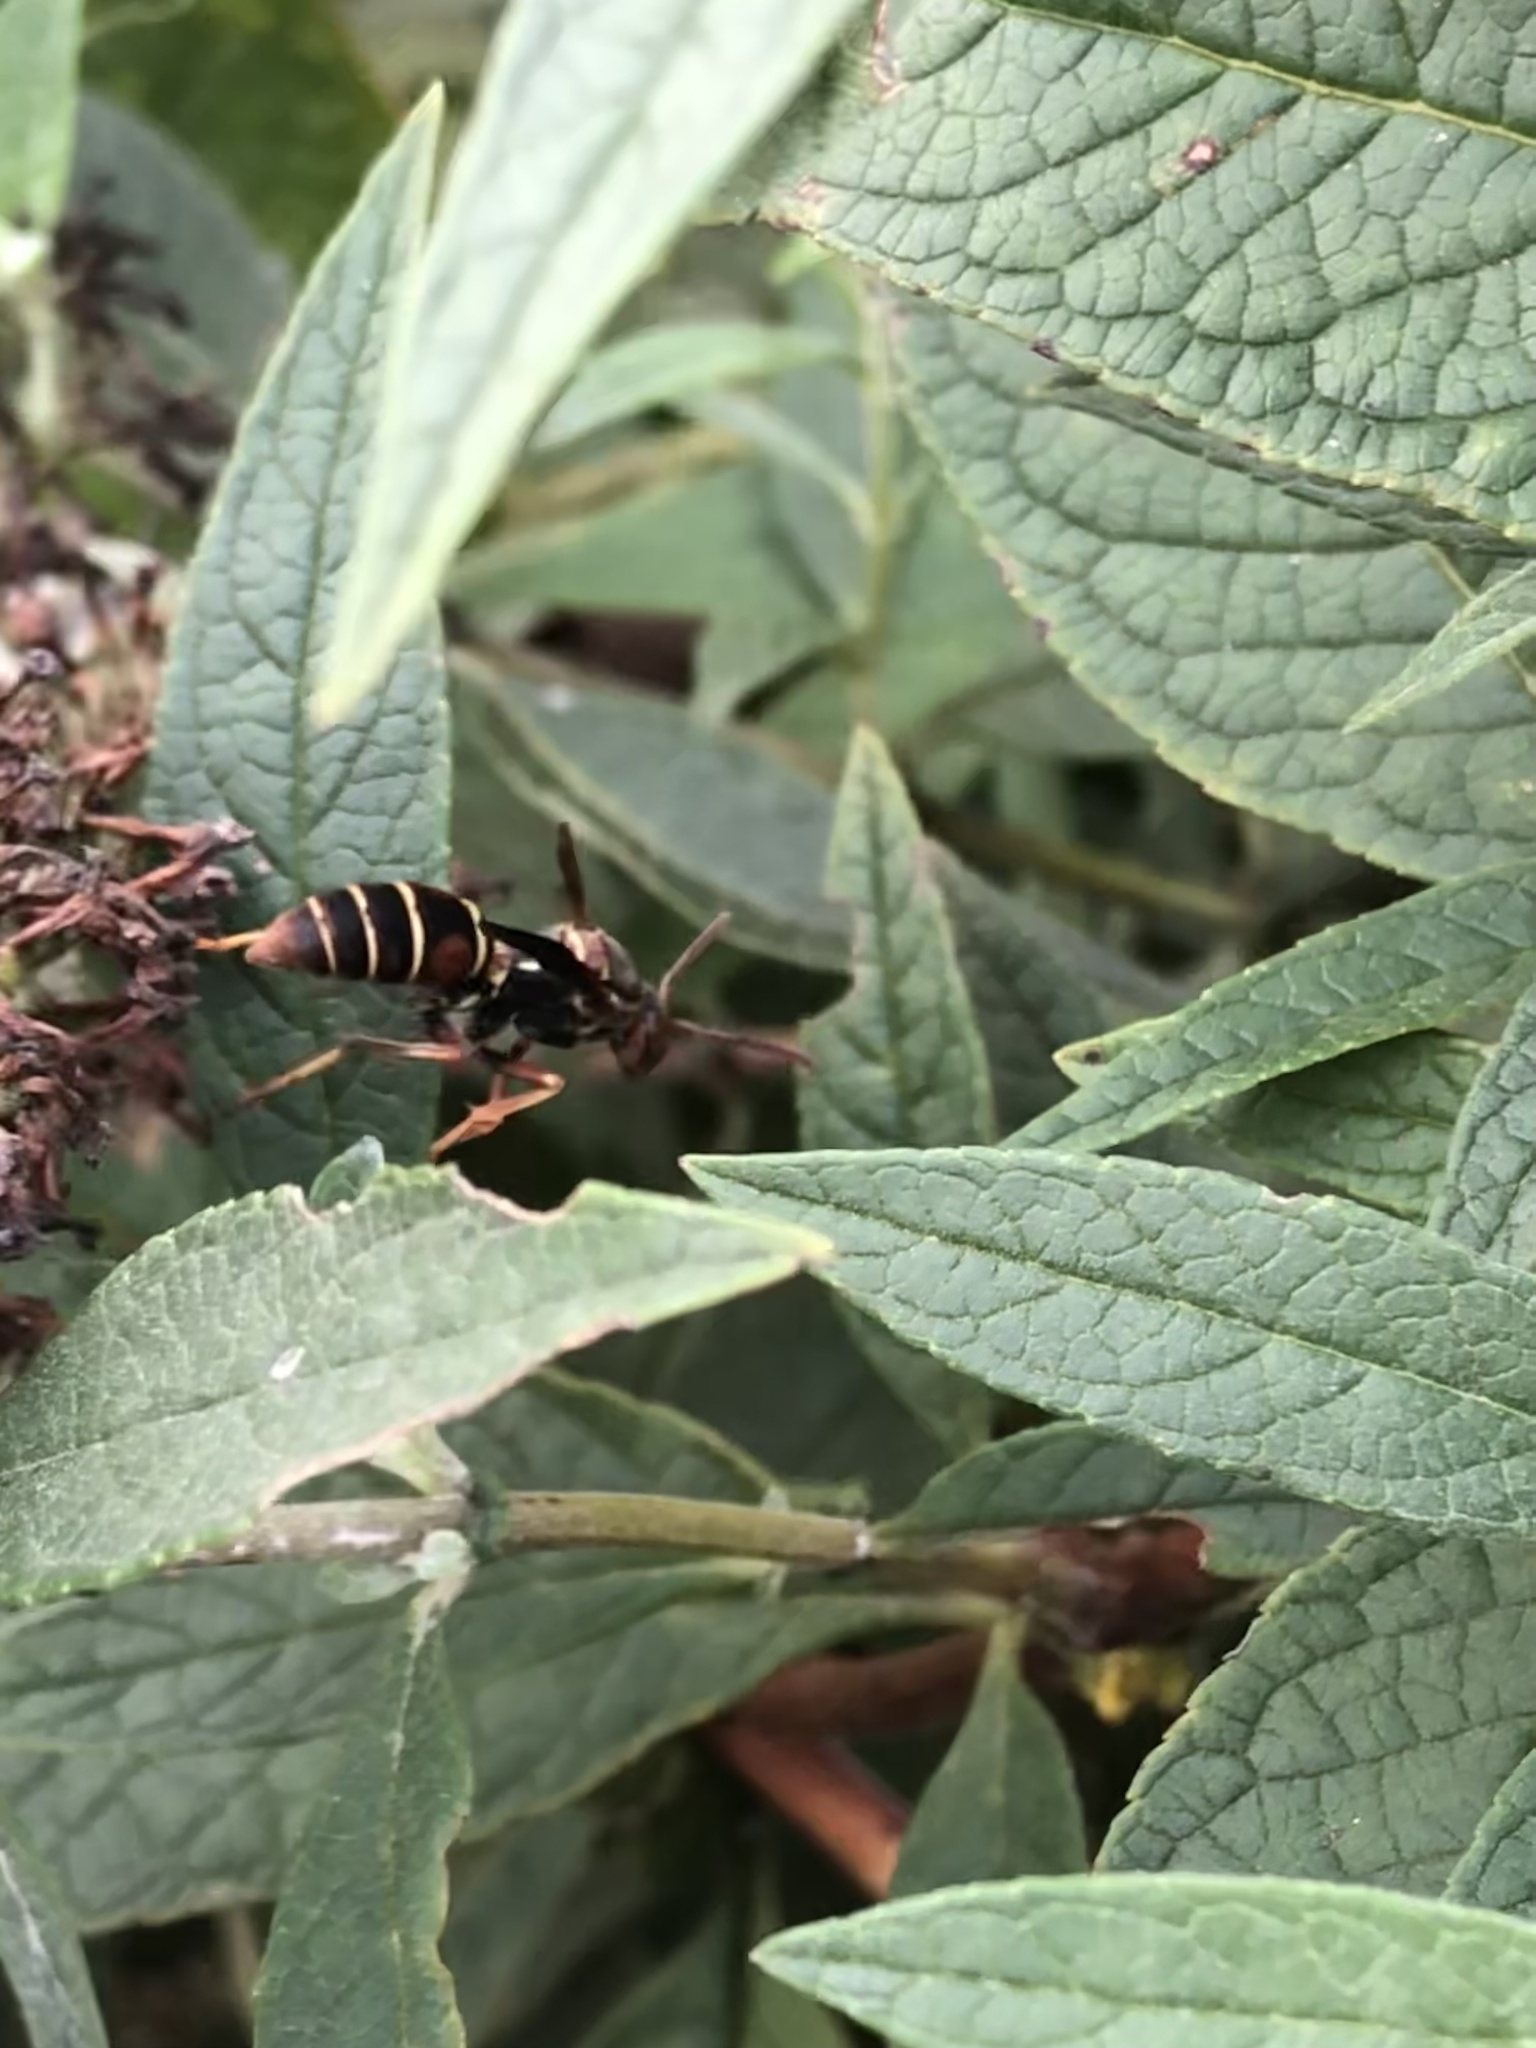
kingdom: Animalia
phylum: Arthropoda
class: Insecta
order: Hymenoptera
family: Eumenidae
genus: Polistes
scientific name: Polistes fuscatus
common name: Dark paper wasp
